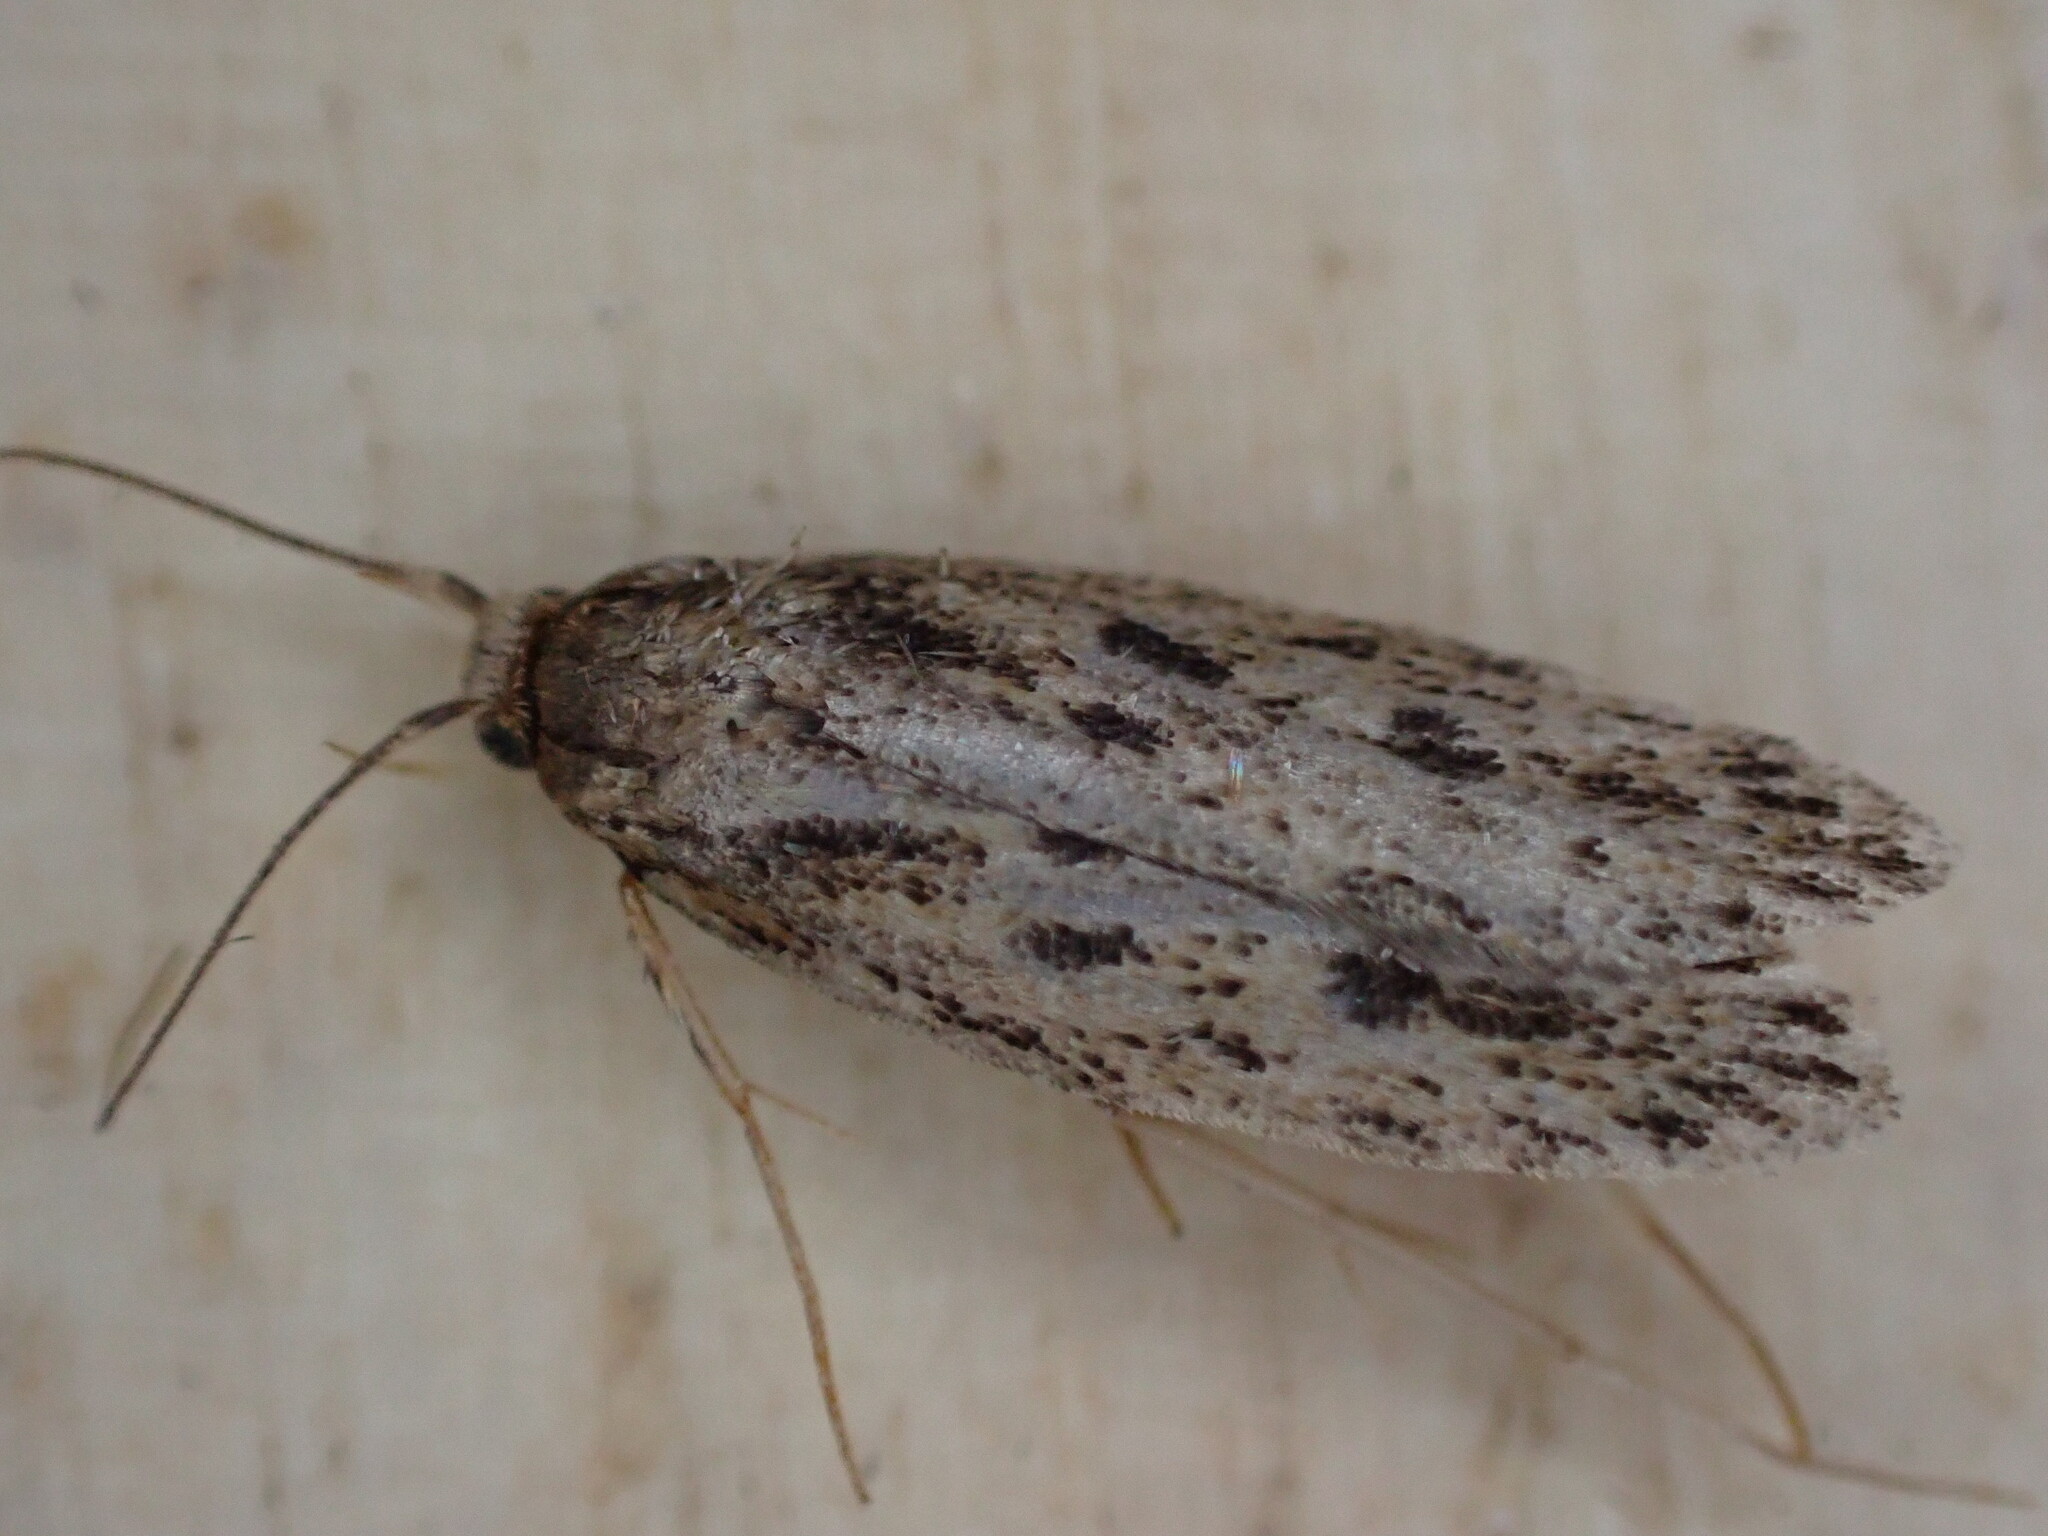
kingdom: Animalia
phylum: Arthropoda
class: Insecta
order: Lepidoptera
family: Oecophoridae
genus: Hofmannophila
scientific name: Hofmannophila pseudospretella
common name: Brown house moth
